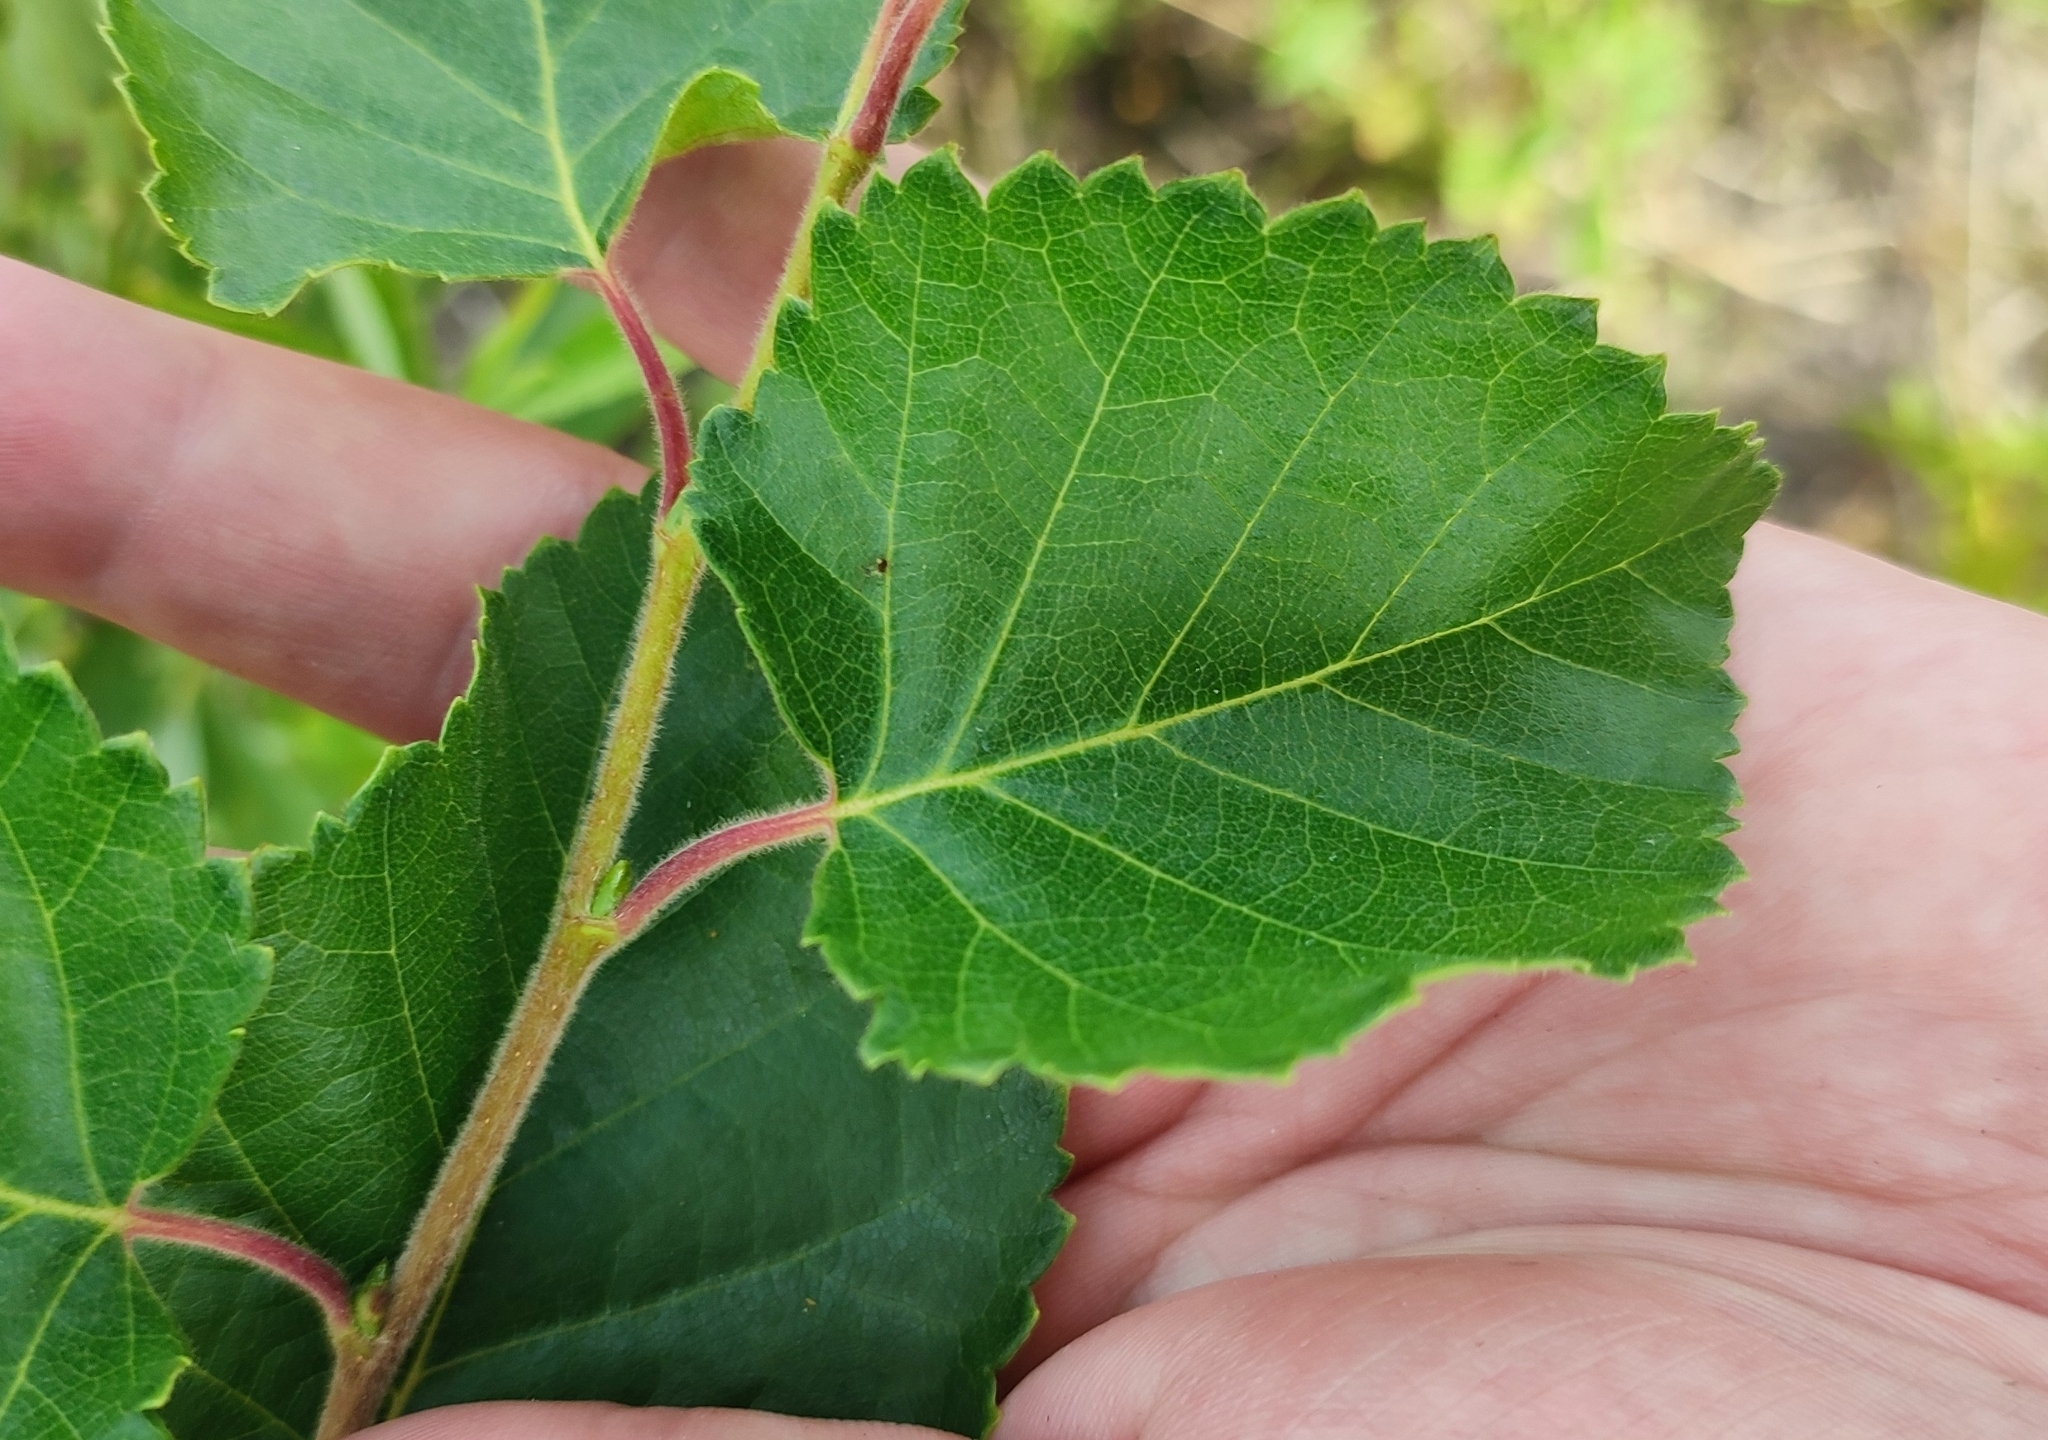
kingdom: Plantae
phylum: Tracheophyta
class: Magnoliopsida
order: Fagales
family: Betulaceae
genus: Betula
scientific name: Betula pubescens
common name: Downy birch
